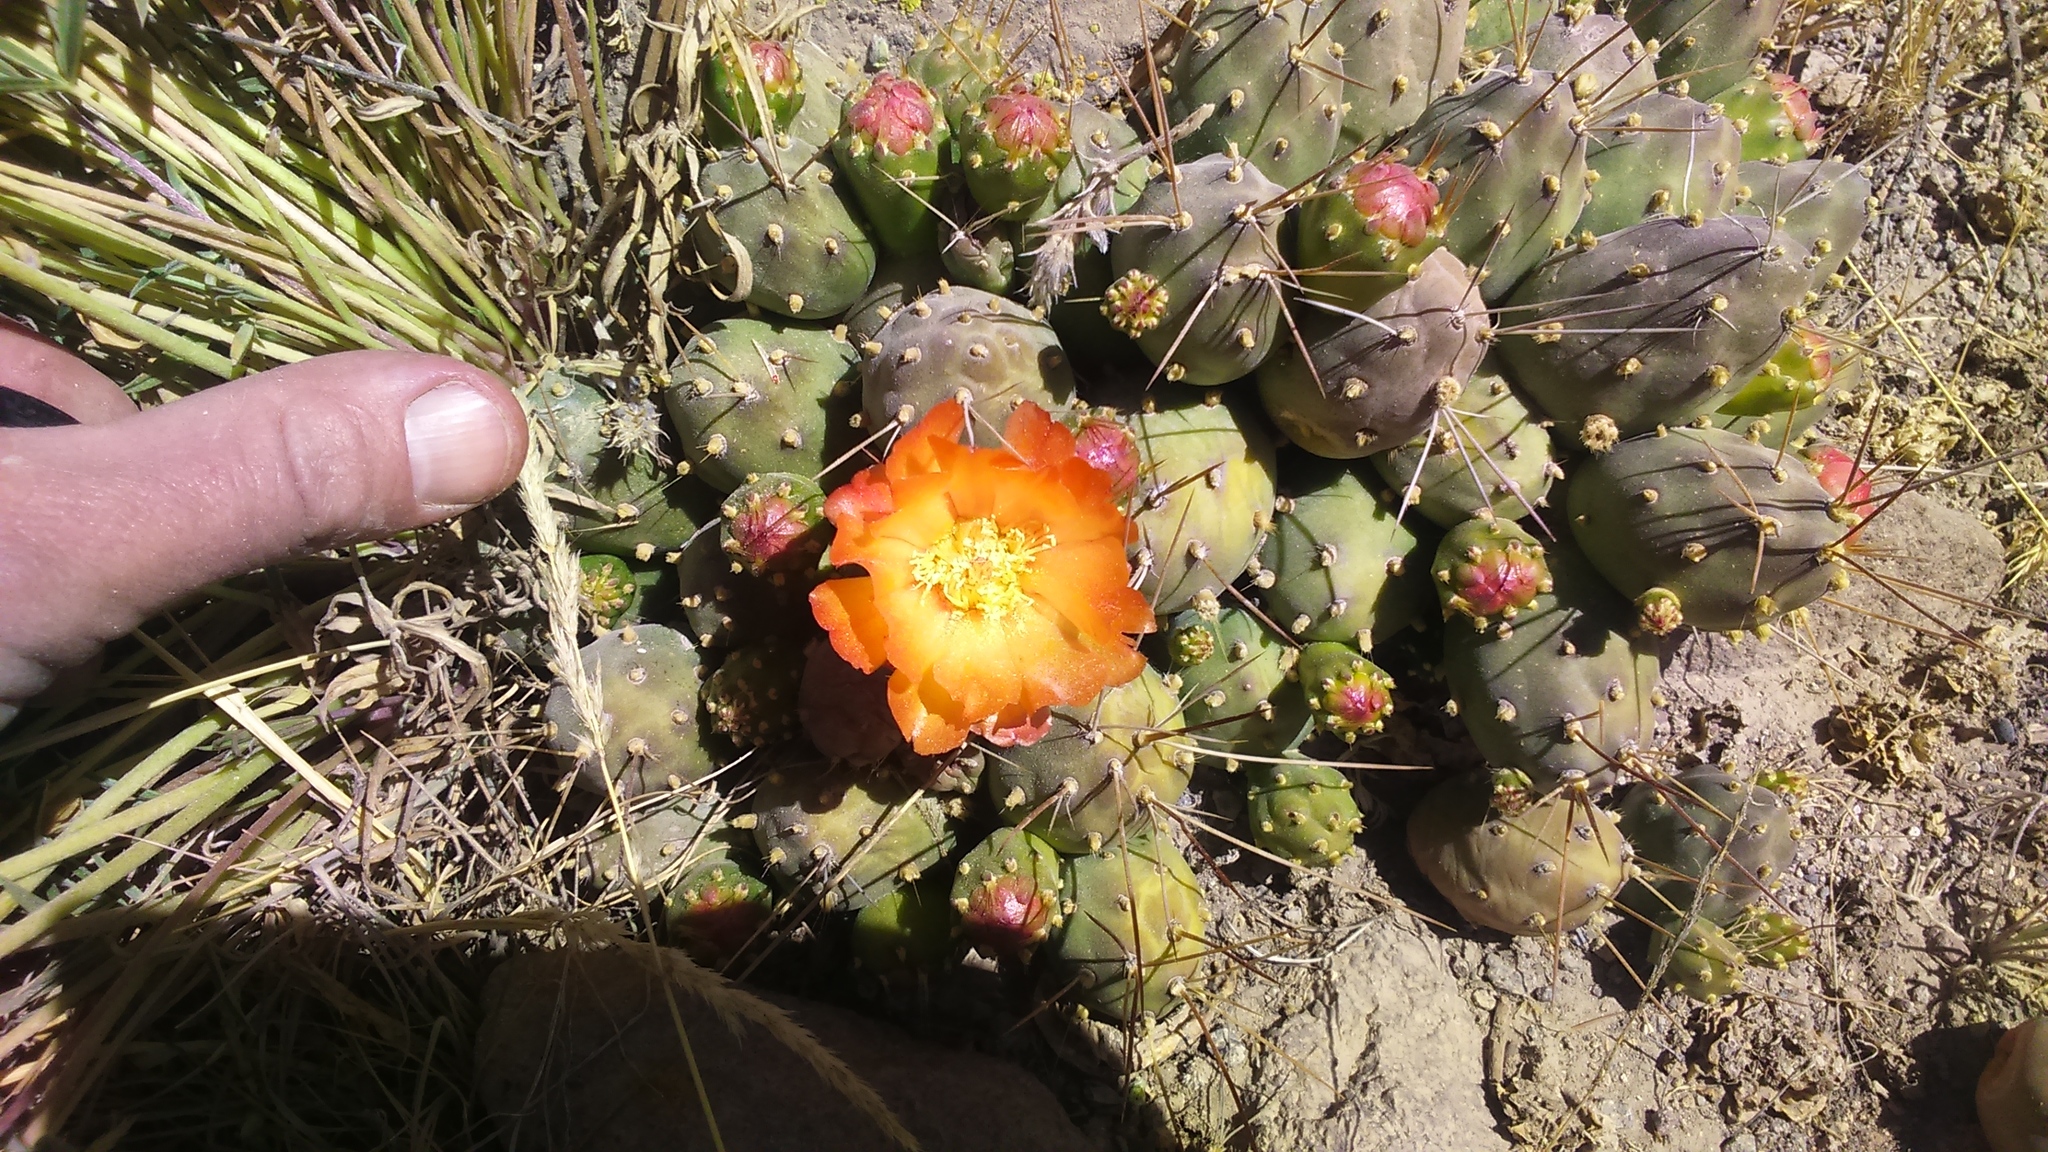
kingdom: Plantae
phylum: Tracheophyta
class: Magnoliopsida
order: Caryophyllales
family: Cactaceae
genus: Cumulopuntia
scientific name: Cumulopuntia corotilla
